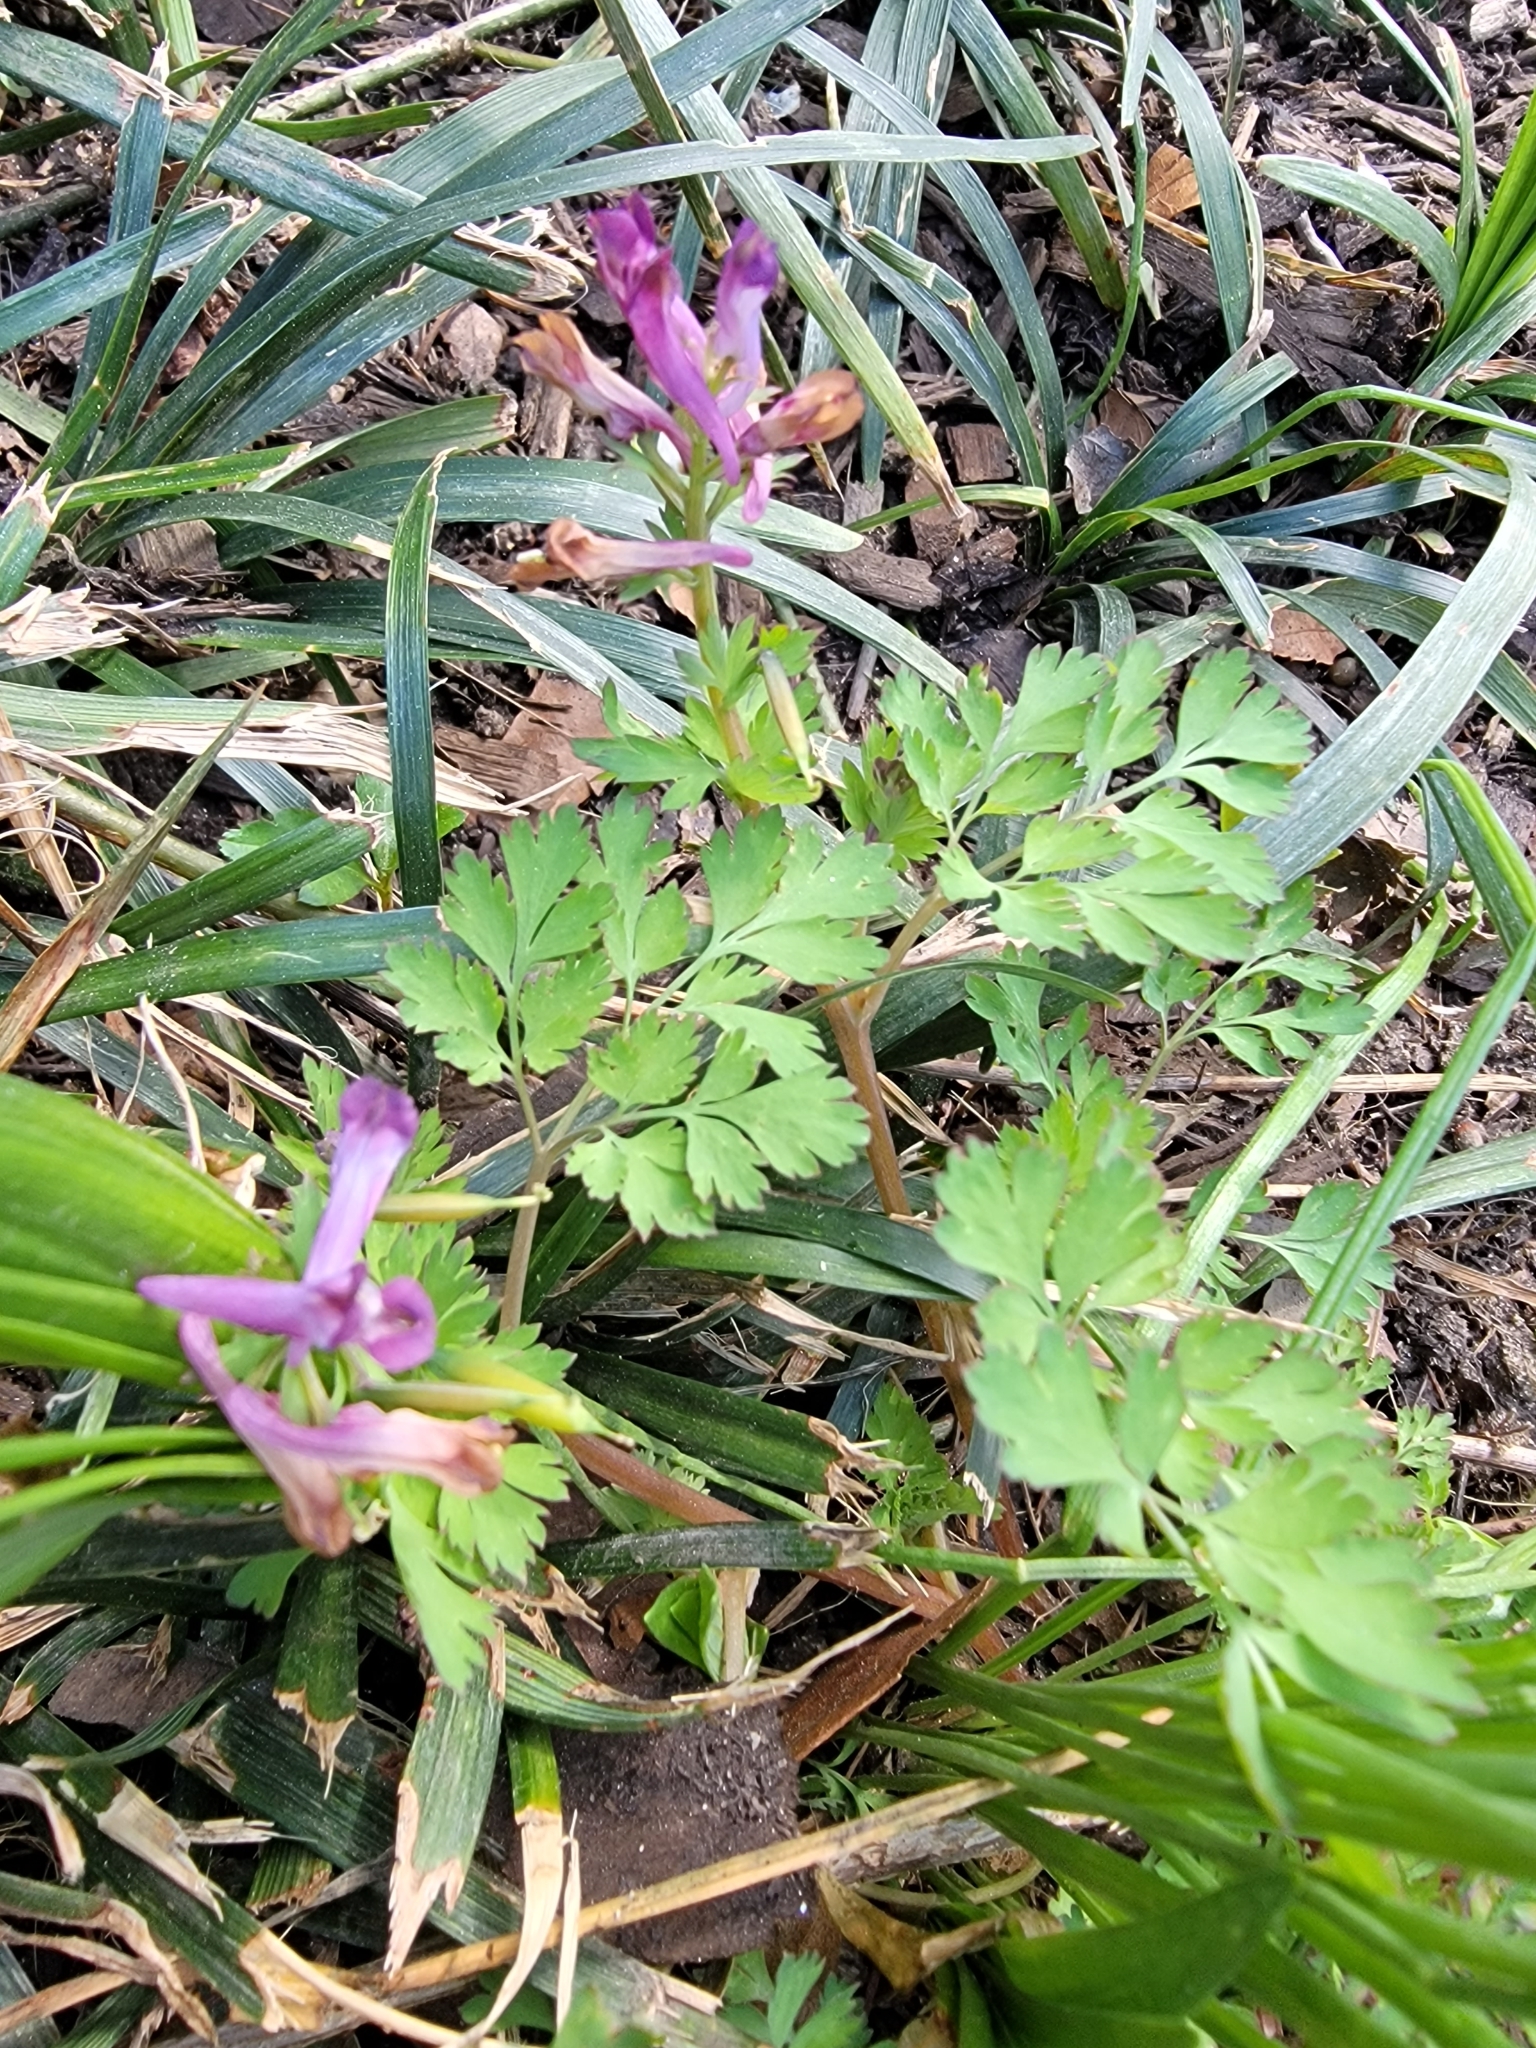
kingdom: Plantae
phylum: Tracheophyta
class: Magnoliopsida
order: Ranunculales
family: Papaveraceae
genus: Corydalis
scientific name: Corydalis incisa
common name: Incised fumewort
